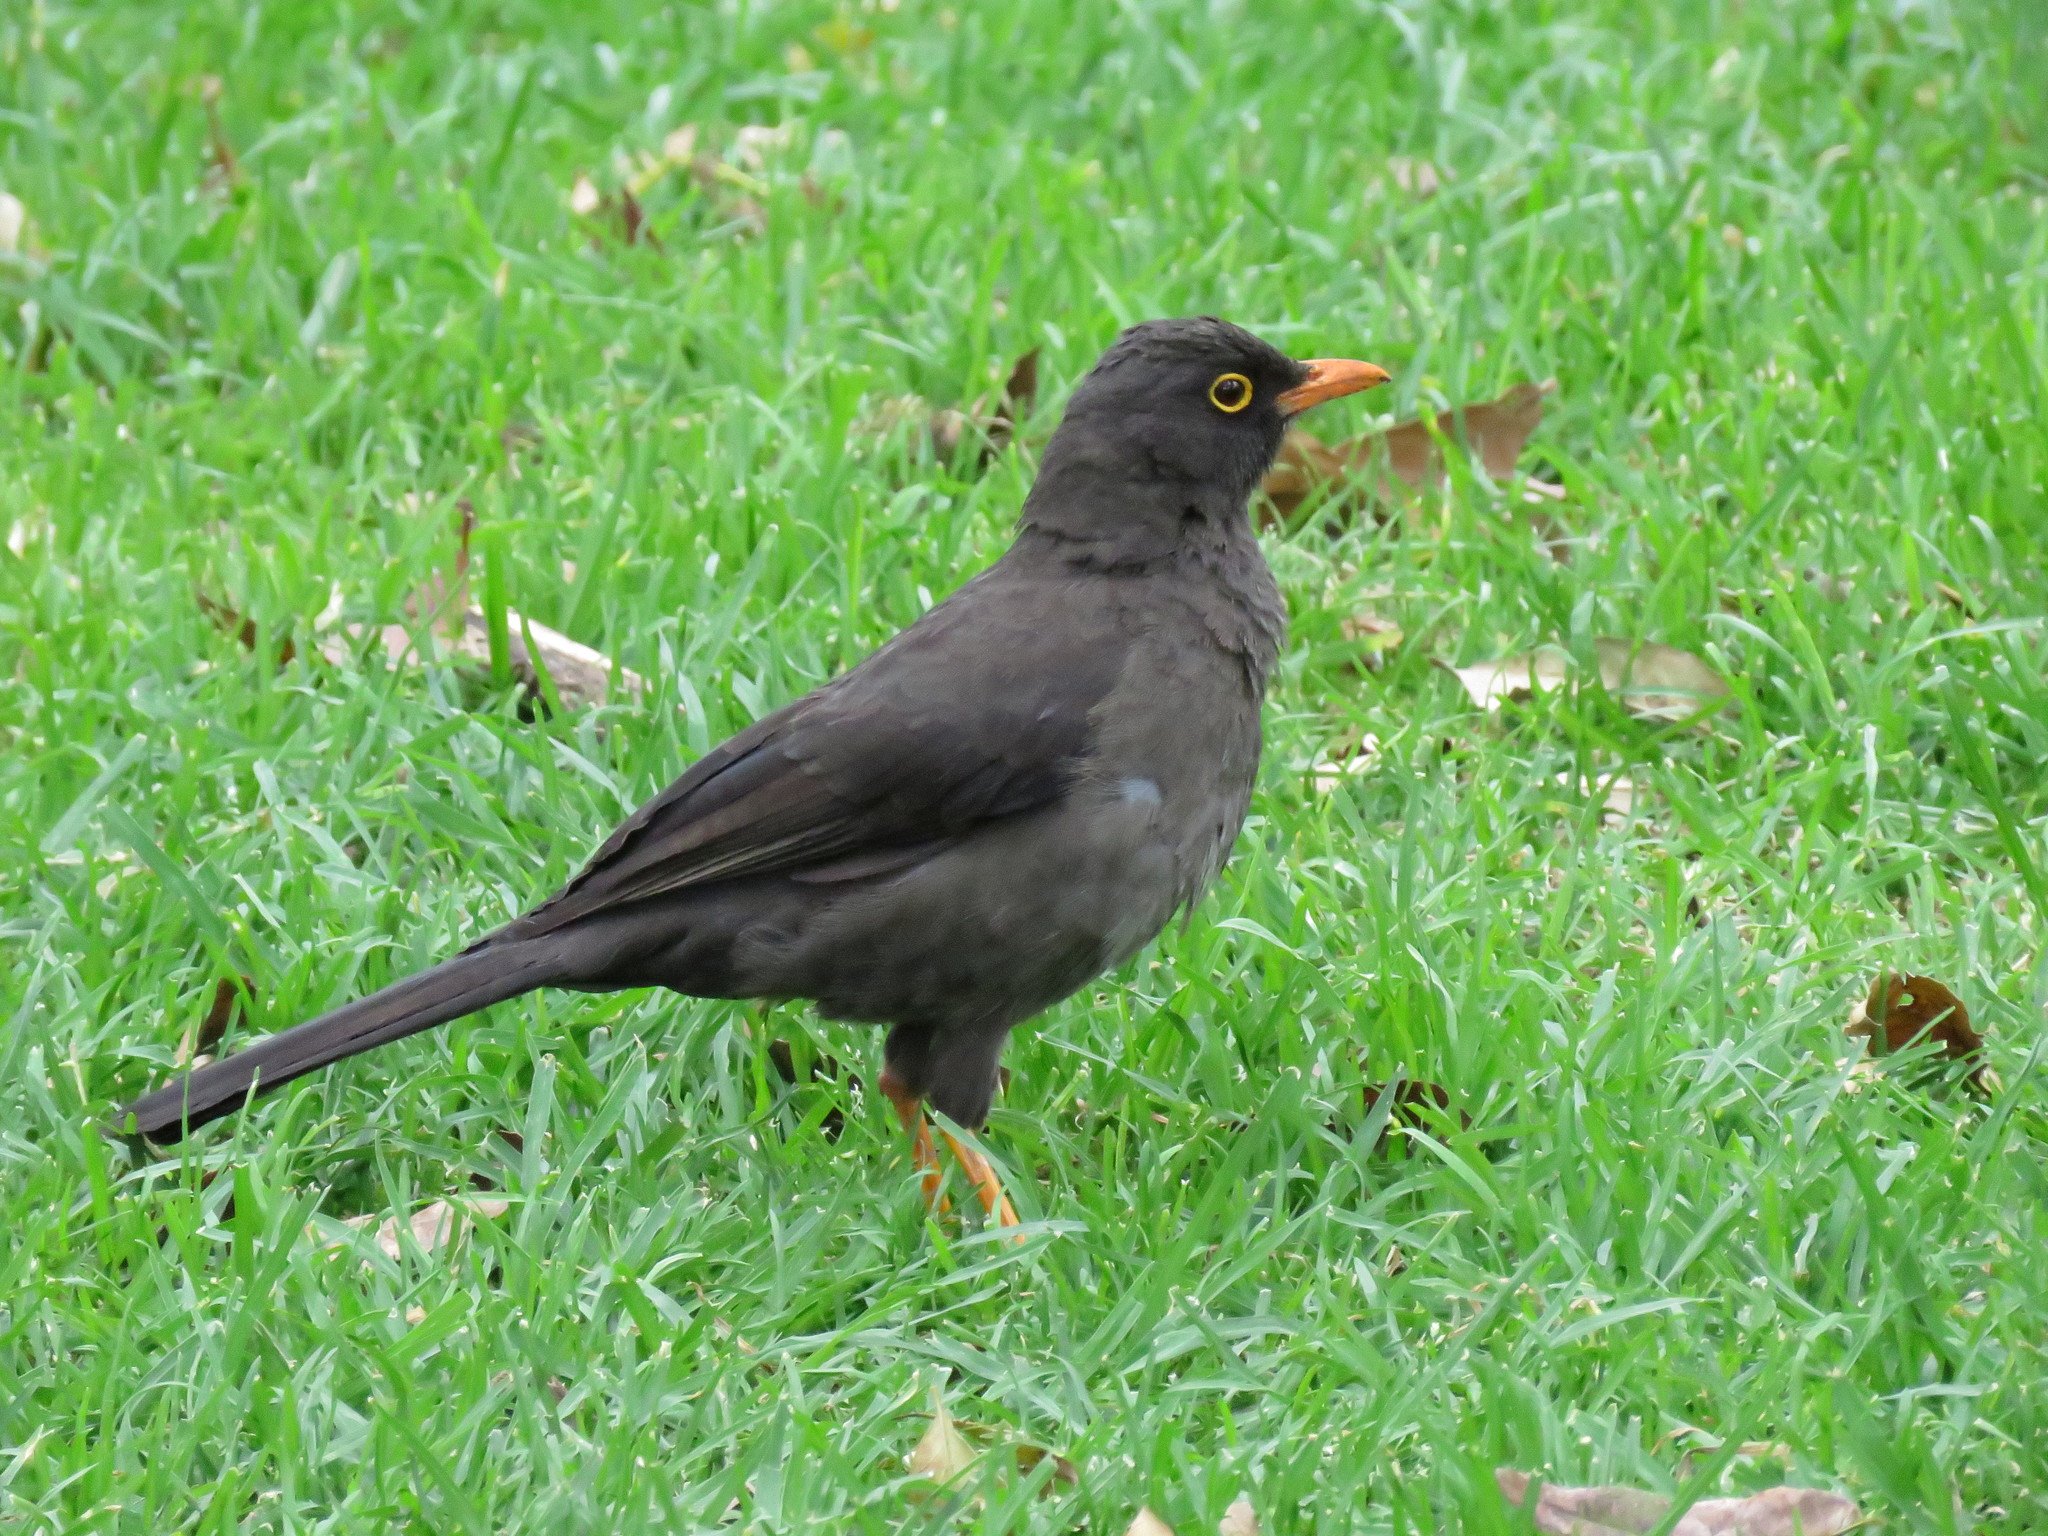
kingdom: Animalia
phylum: Chordata
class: Aves
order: Passeriformes
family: Turdidae
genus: Turdus
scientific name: Turdus fuscater
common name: Great thrush
